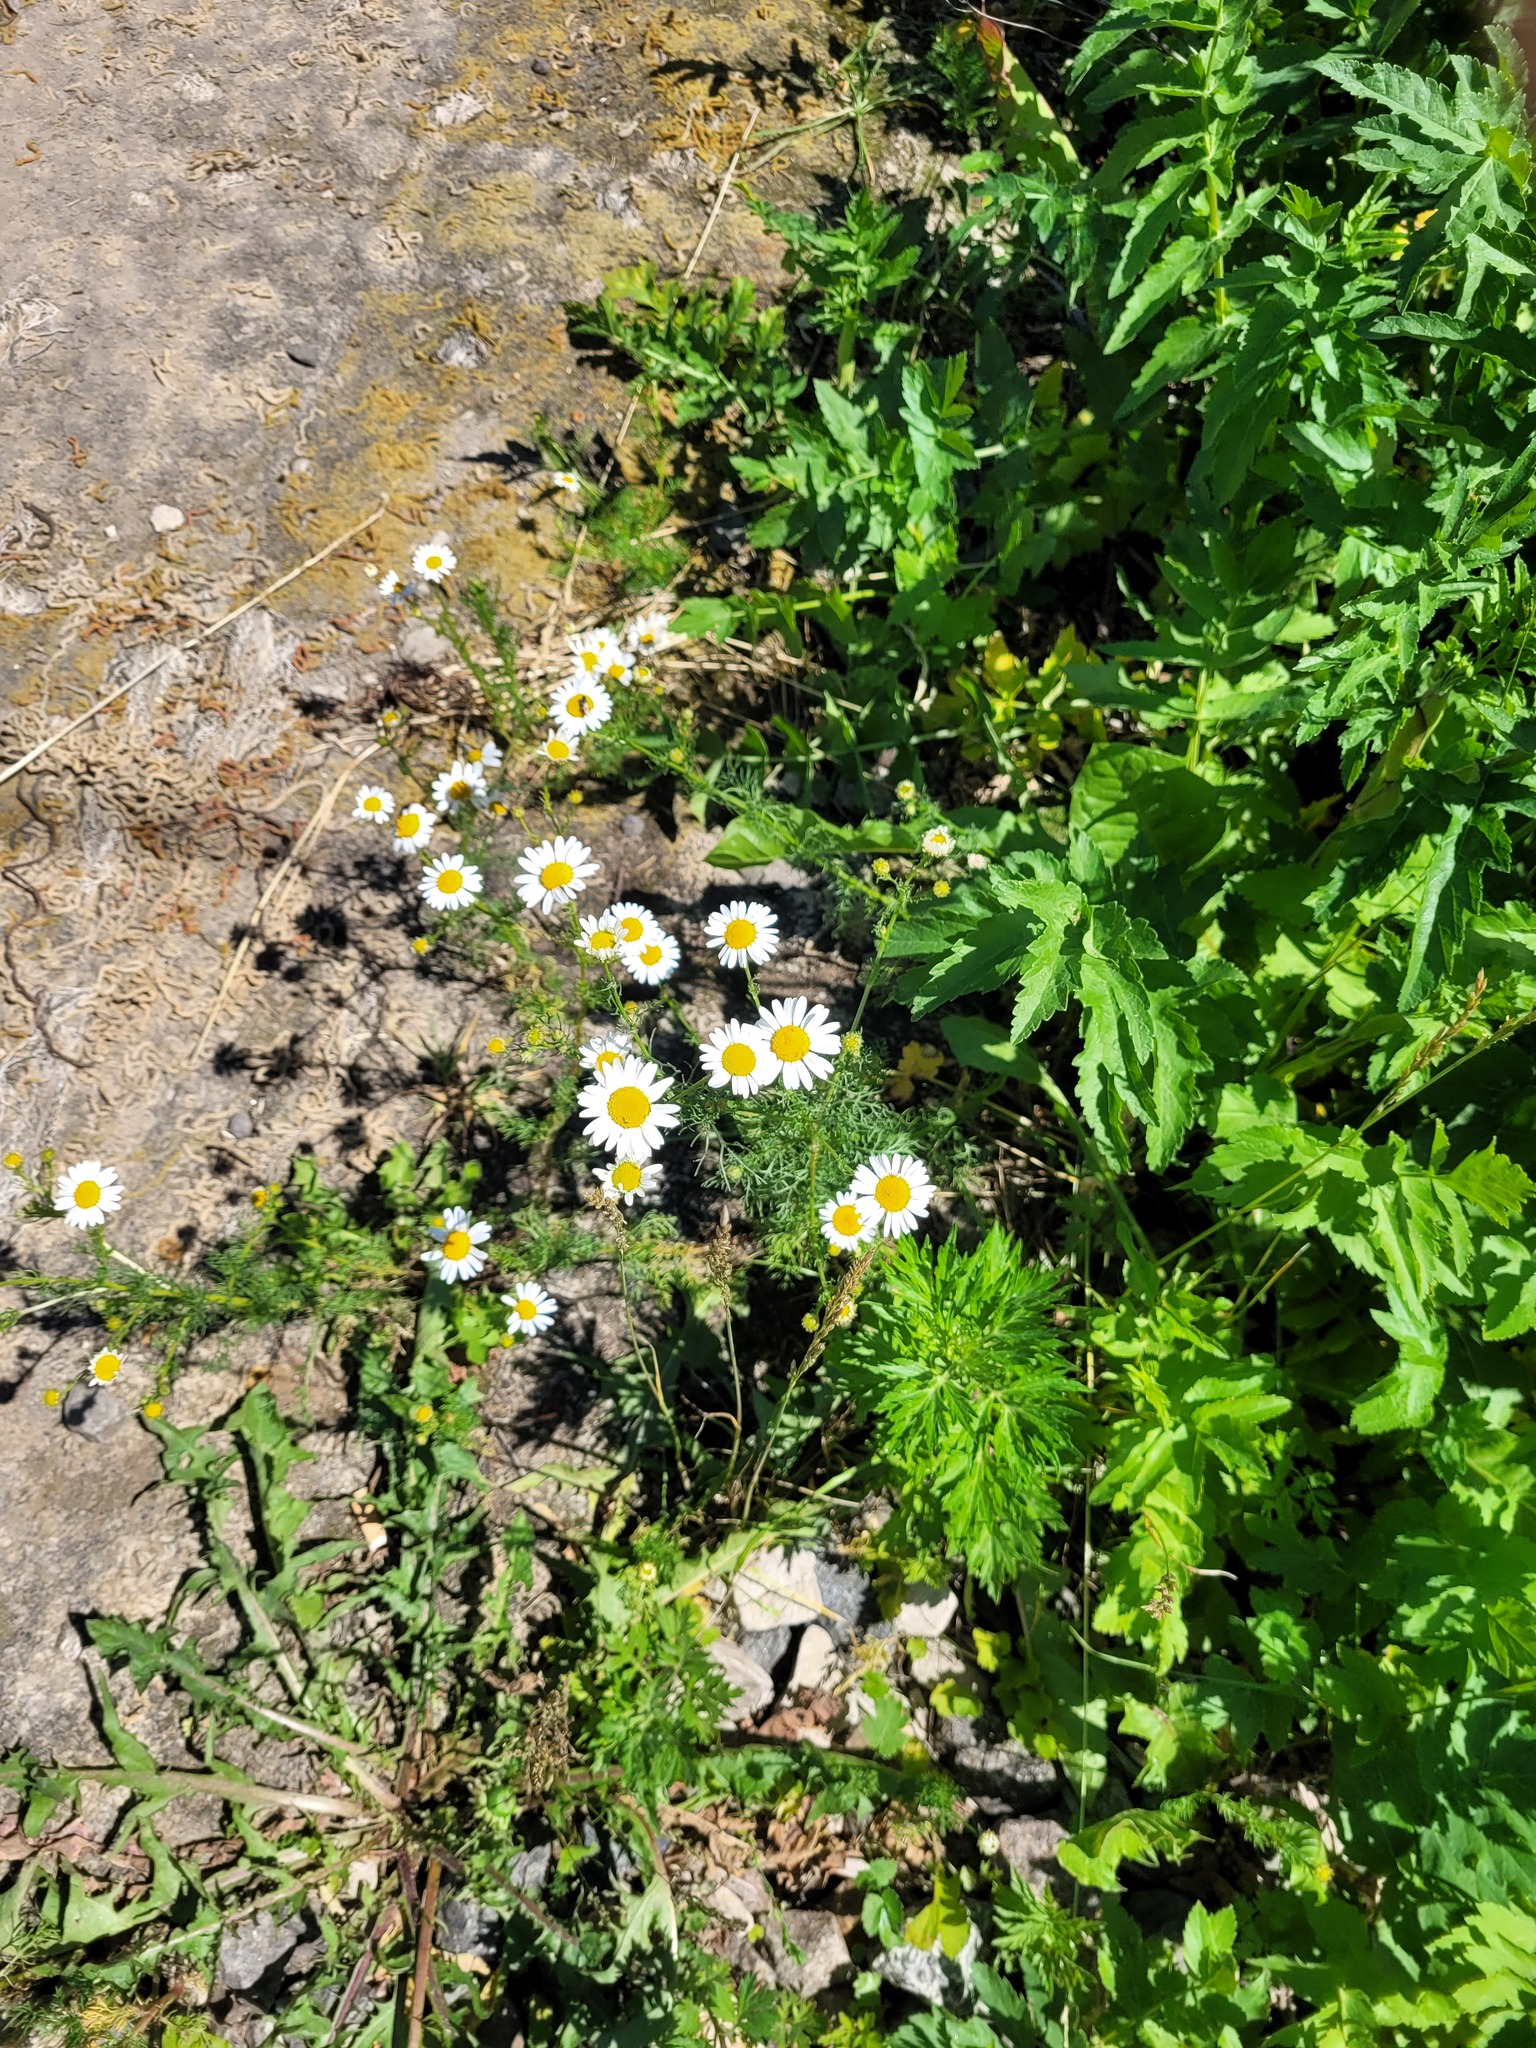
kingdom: Plantae
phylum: Tracheophyta
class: Magnoliopsida
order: Asterales
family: Asteraceae
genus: Tripleurospermum
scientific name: Tripleurospermum inodorum
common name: Scentless mayweed
